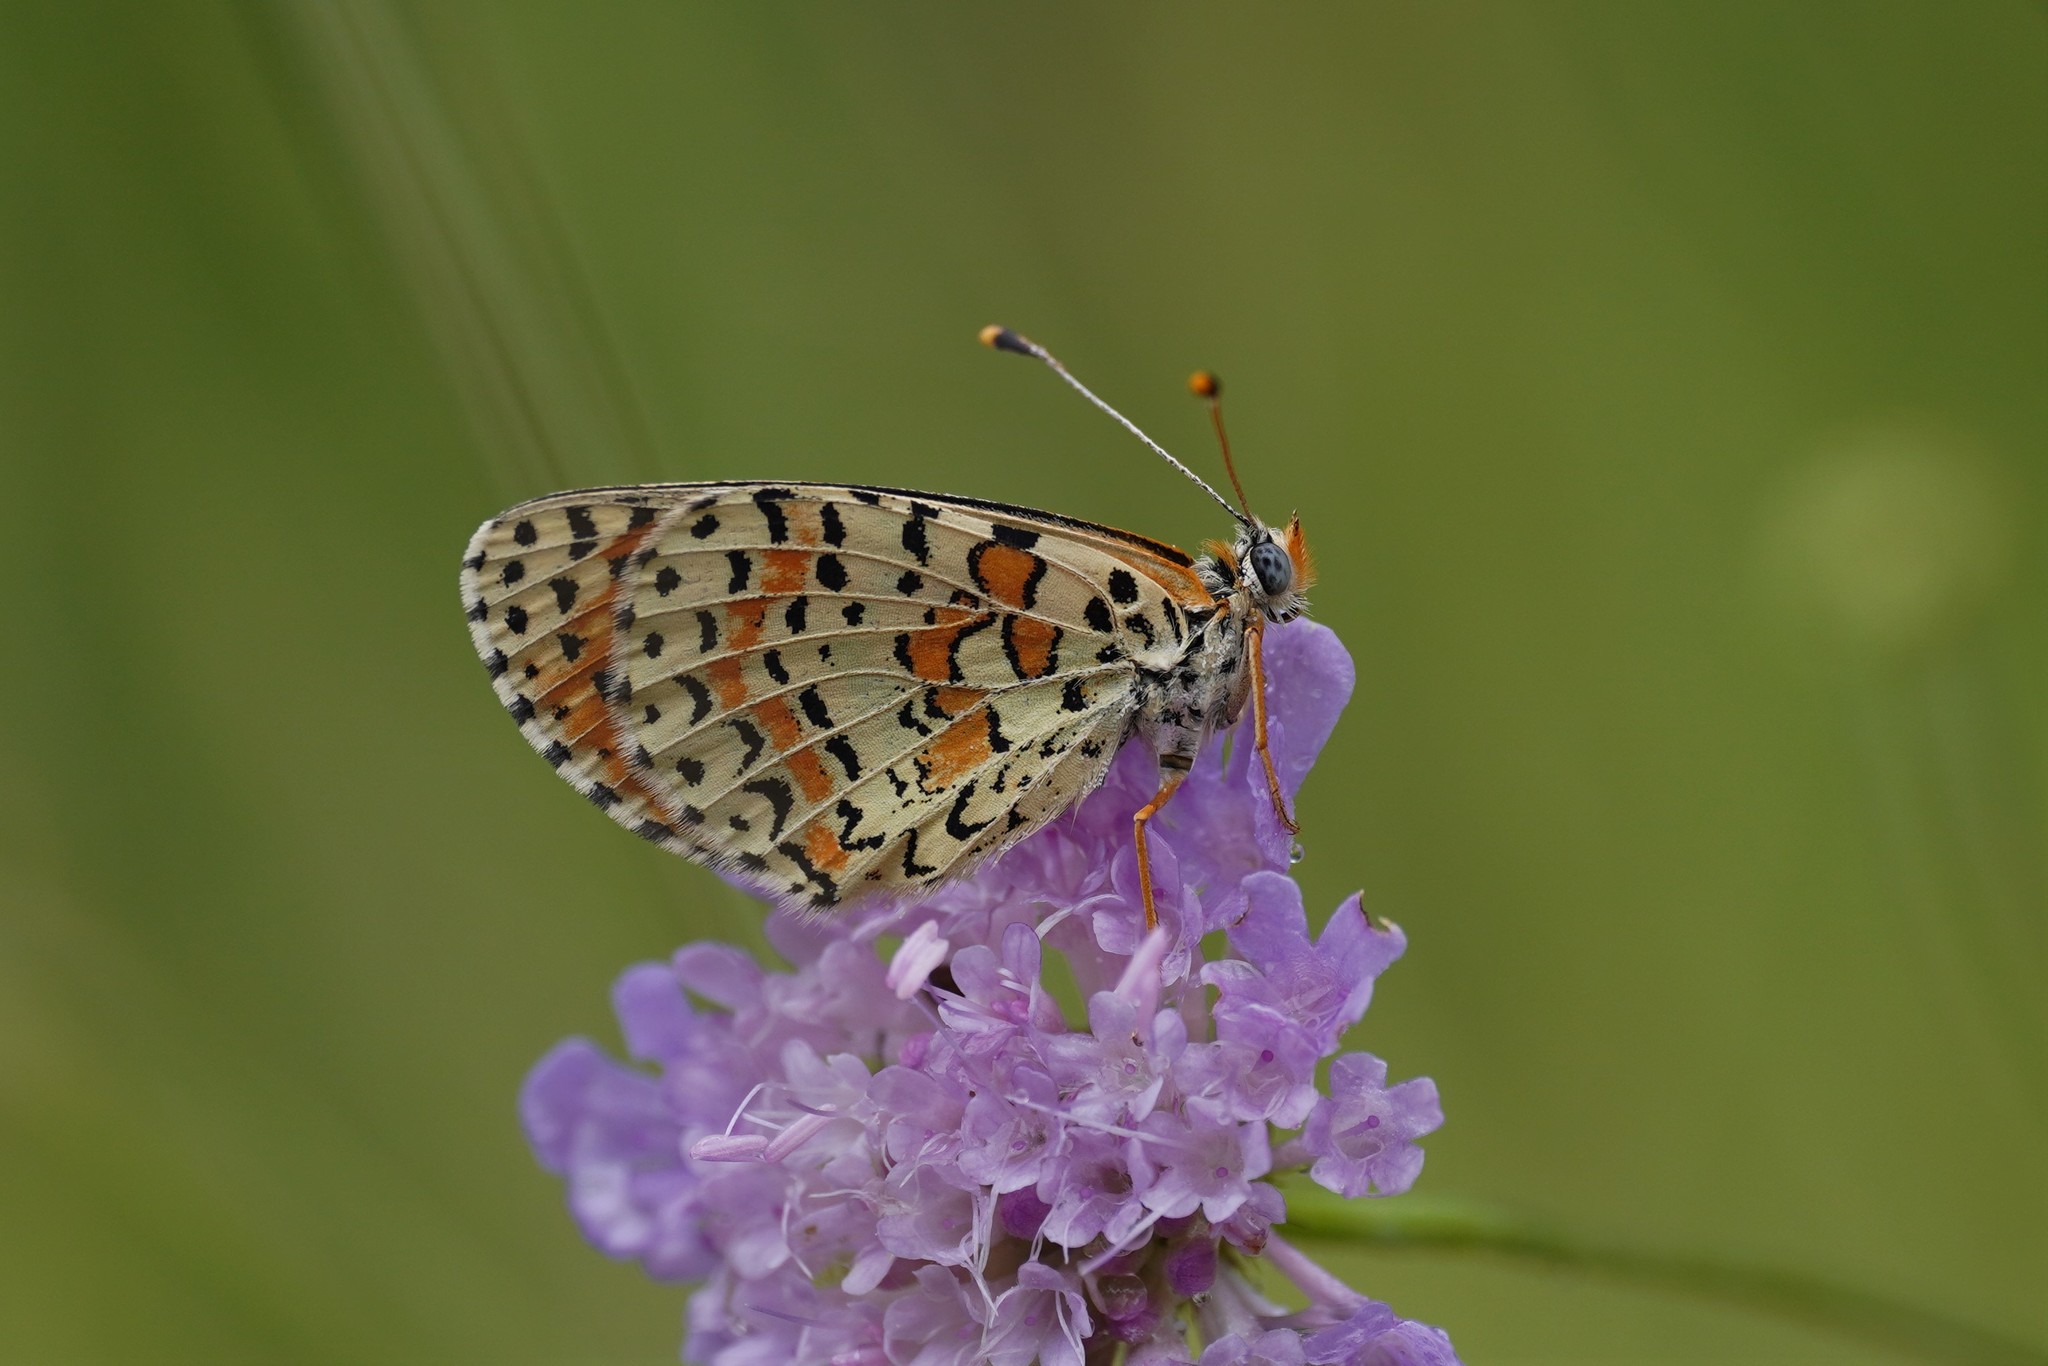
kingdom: Animalia
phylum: Arthropoda
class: Insecta
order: Lepidoptera
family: Nymphalidae
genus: Melitaea
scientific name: Melitaea didyma
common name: Spotted fritillary
